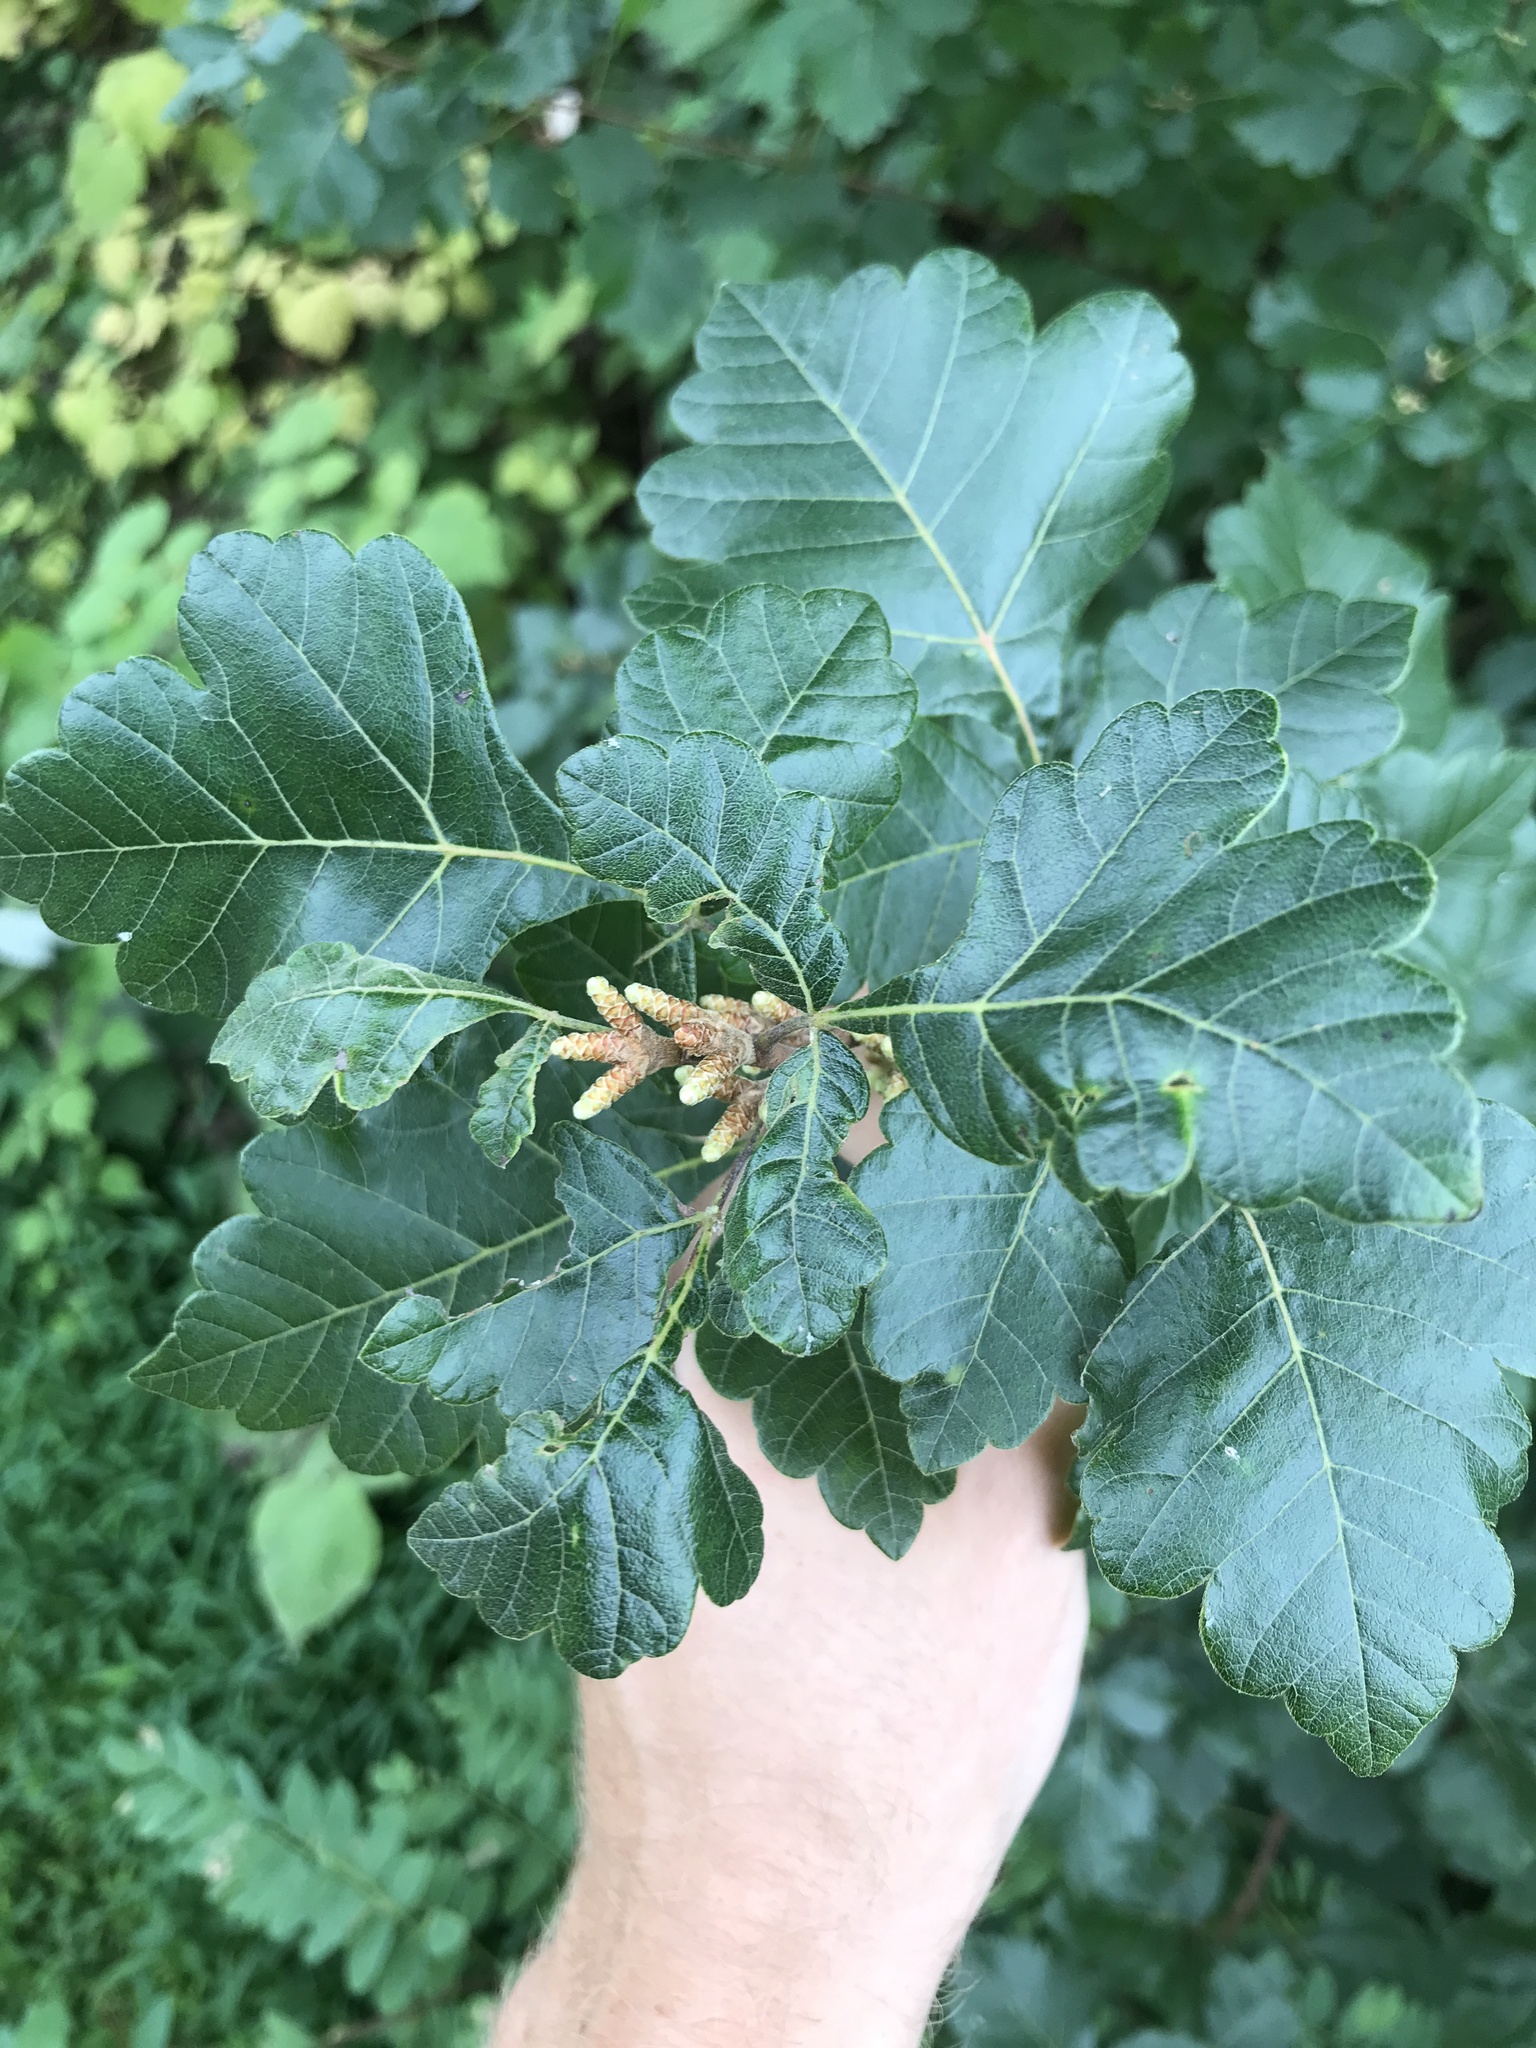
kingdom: Plantae
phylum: Tracheophyta
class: Magnoliopsida
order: Sapindales
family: Anacardiaceae
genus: Rhus
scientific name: Rhus aromatica
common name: Aromatic sumac
